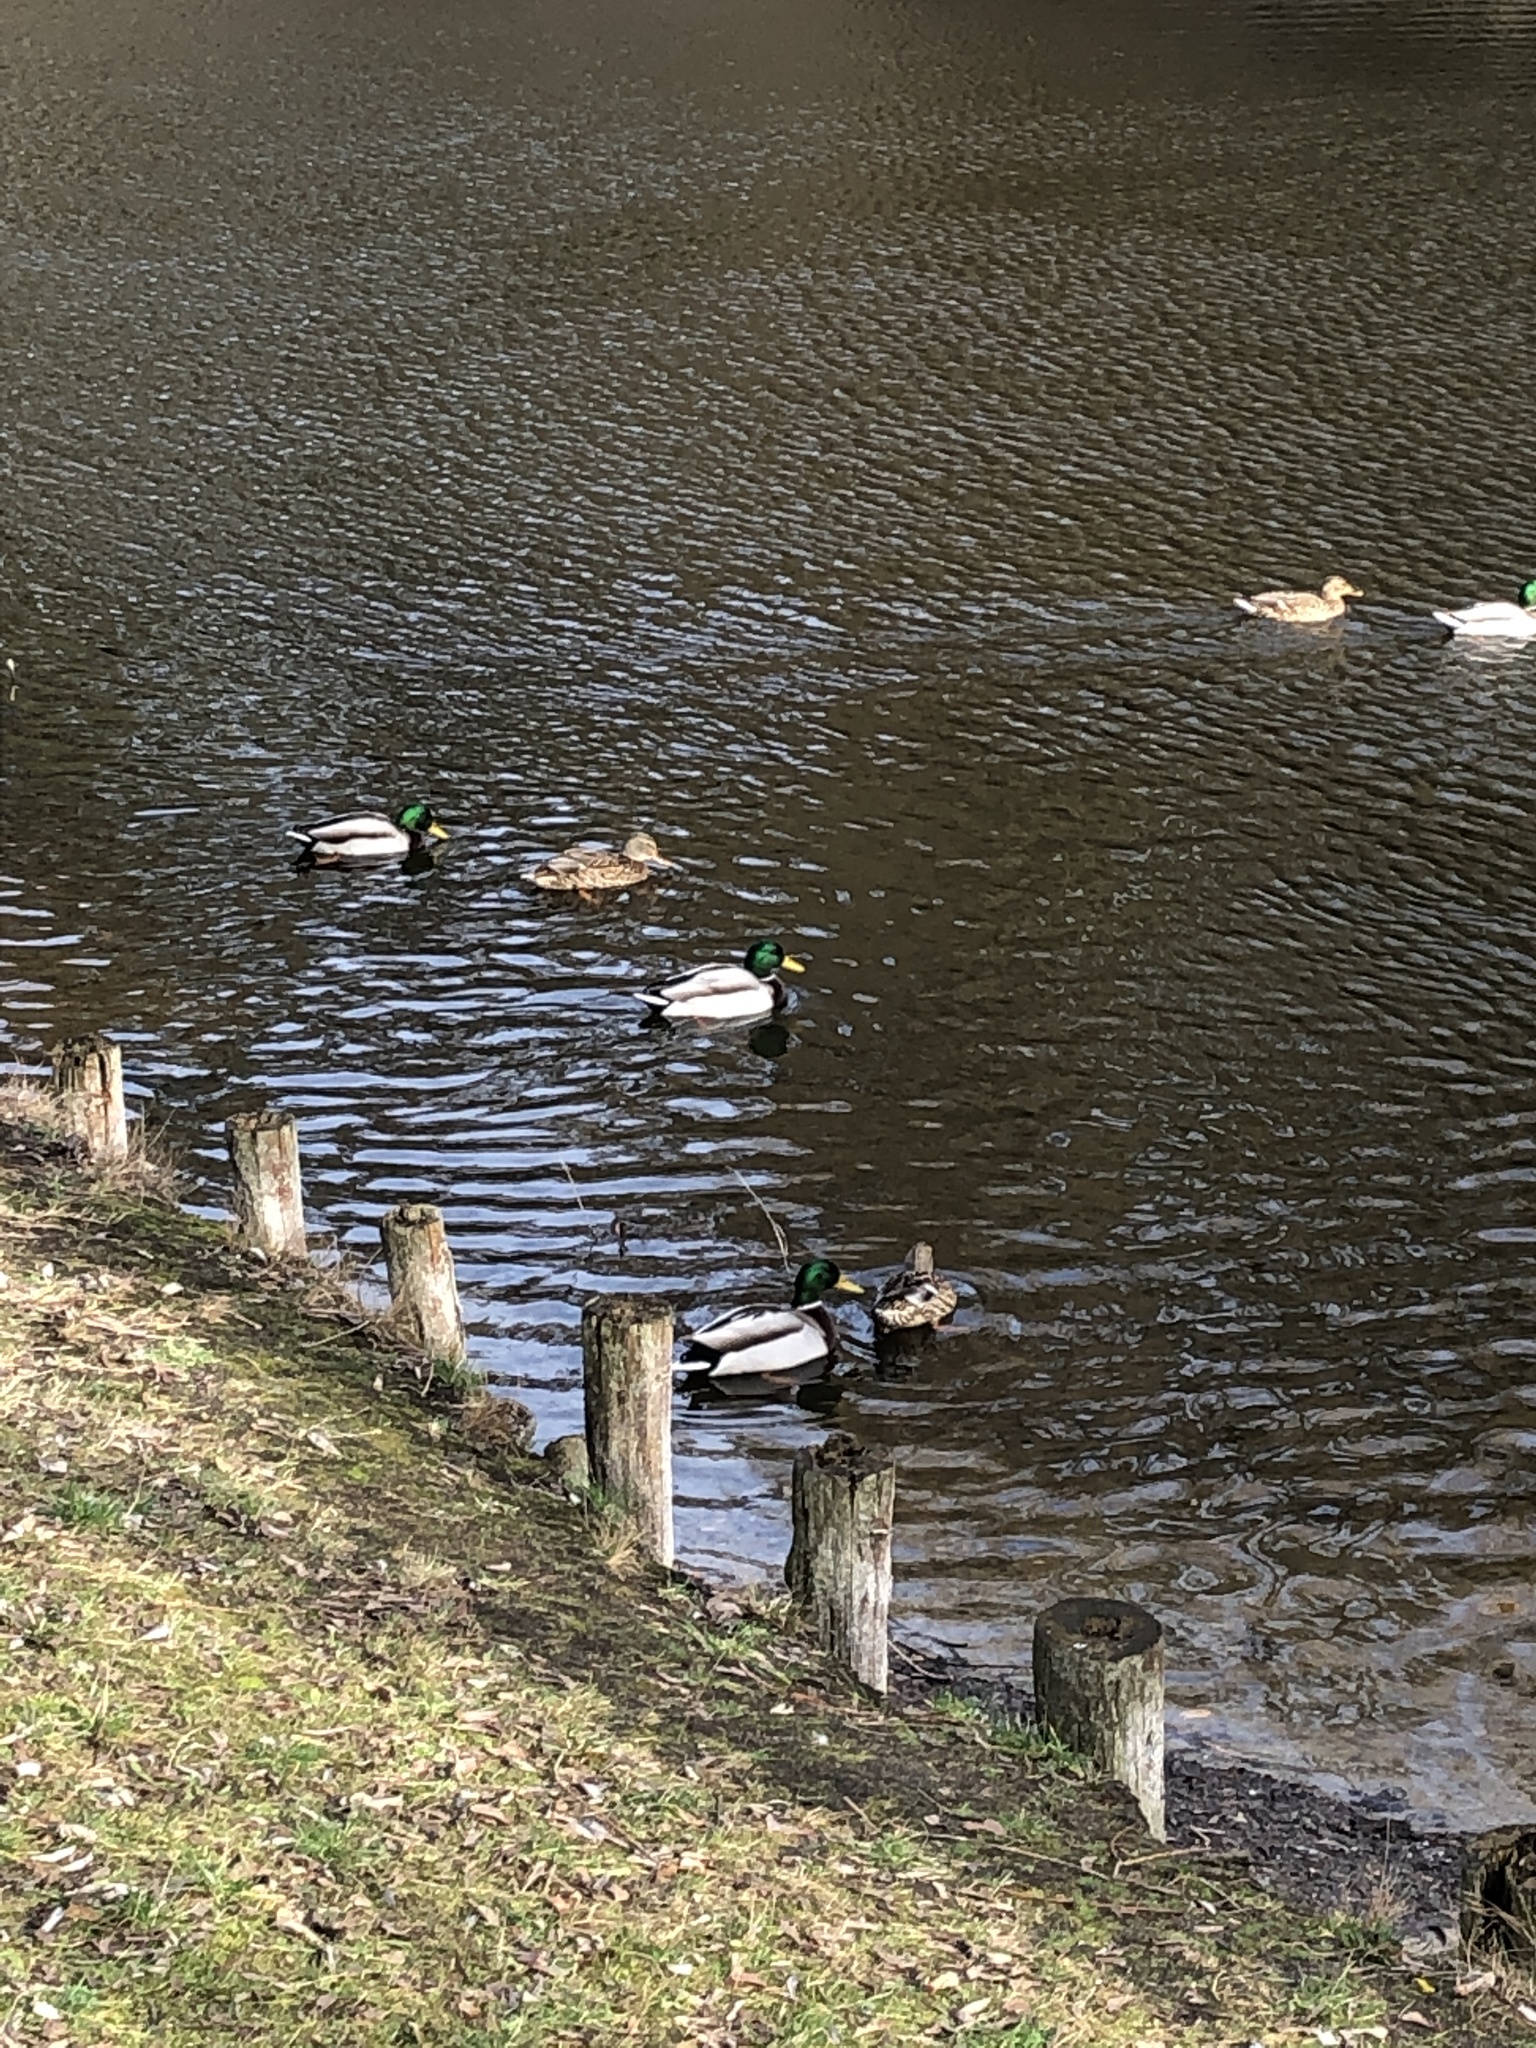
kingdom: Animalia
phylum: Chordata
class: Aves
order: Anseriformes
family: Anatidae
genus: Anas
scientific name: Anas platyrhynchos
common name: Mallard
